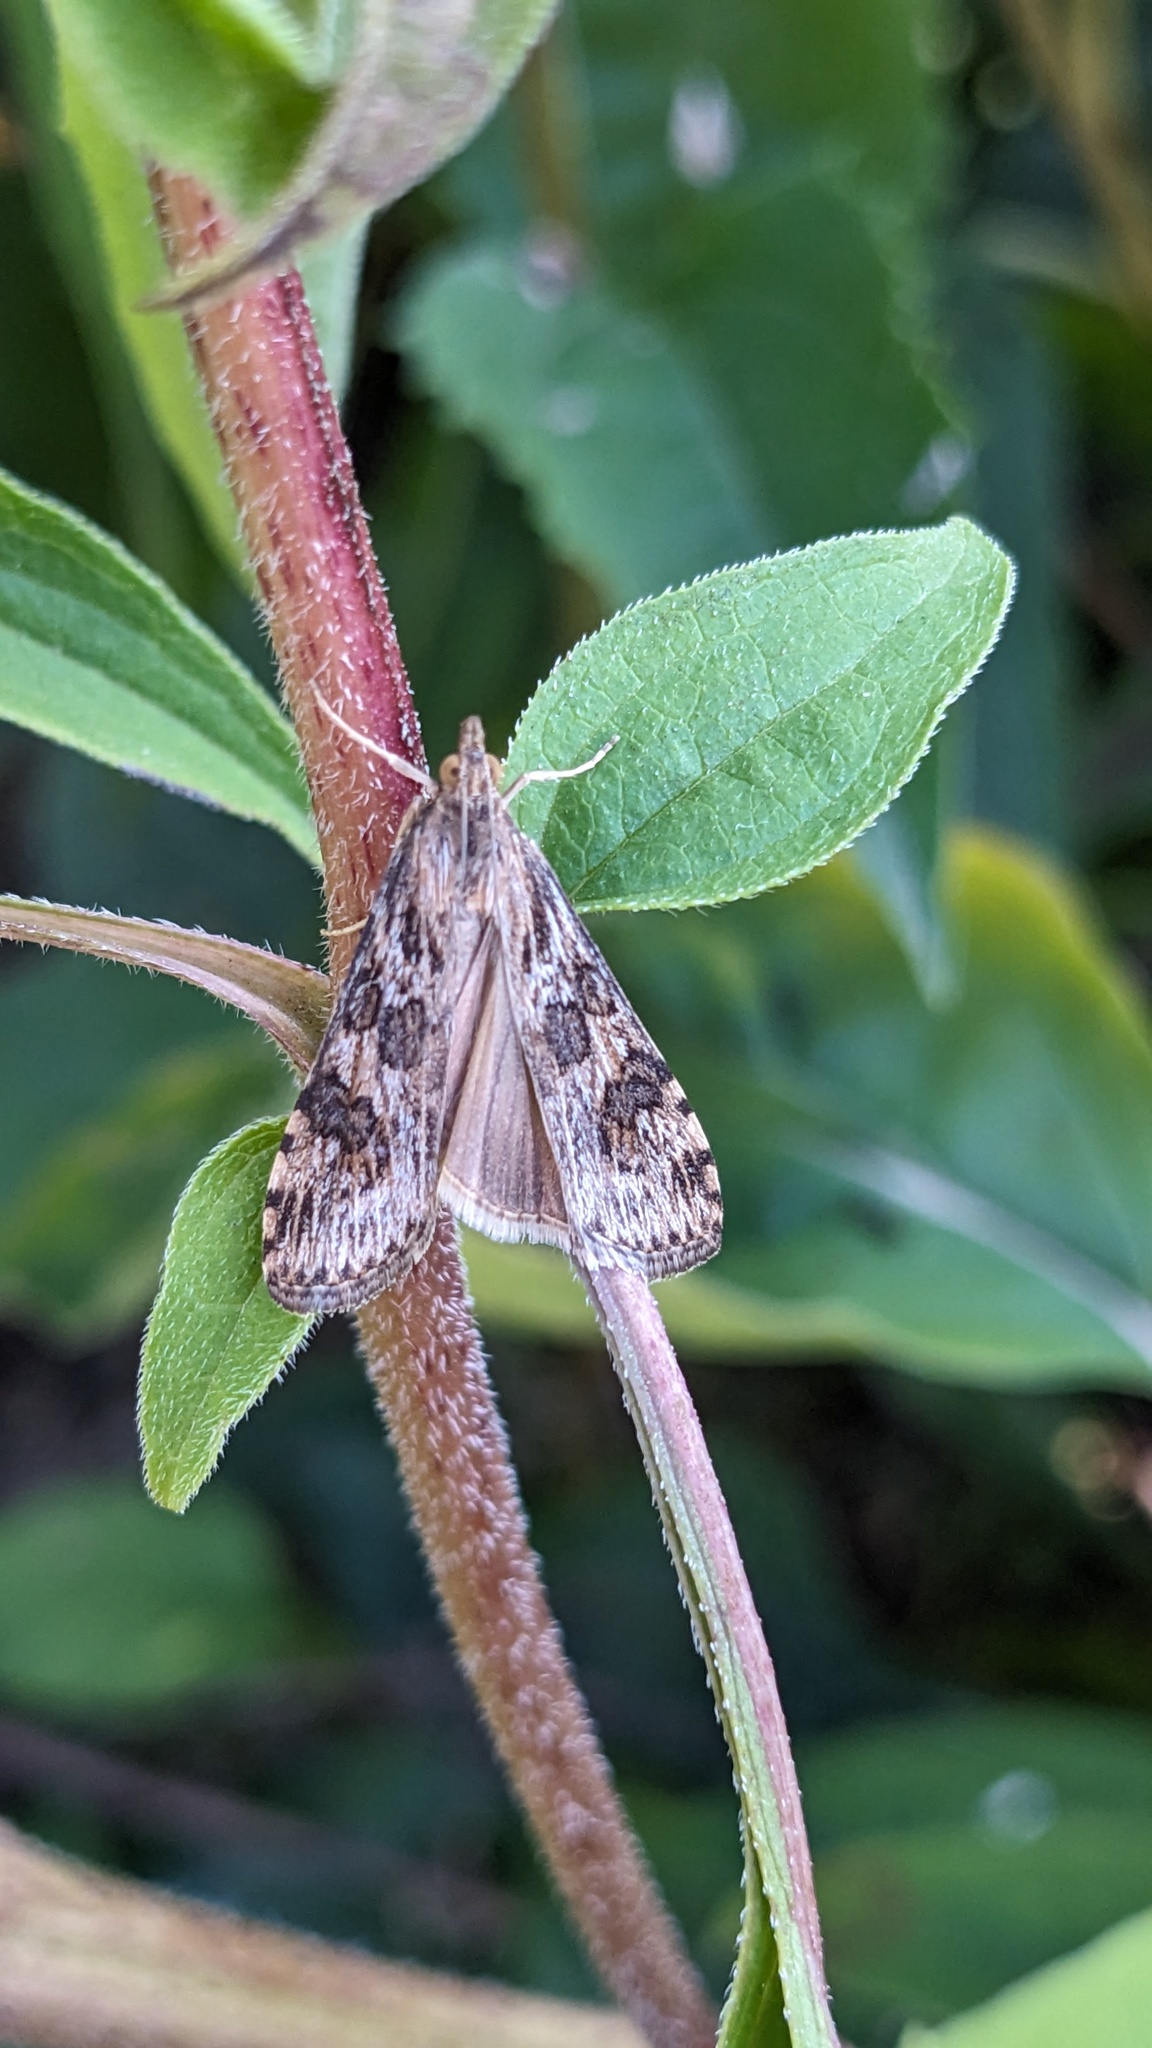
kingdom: Animalia
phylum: Arthropoda
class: Insecta
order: Lepidoptera
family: Crambidae
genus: Nomophila
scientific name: Nomophila nearctica
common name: American rush veneer
